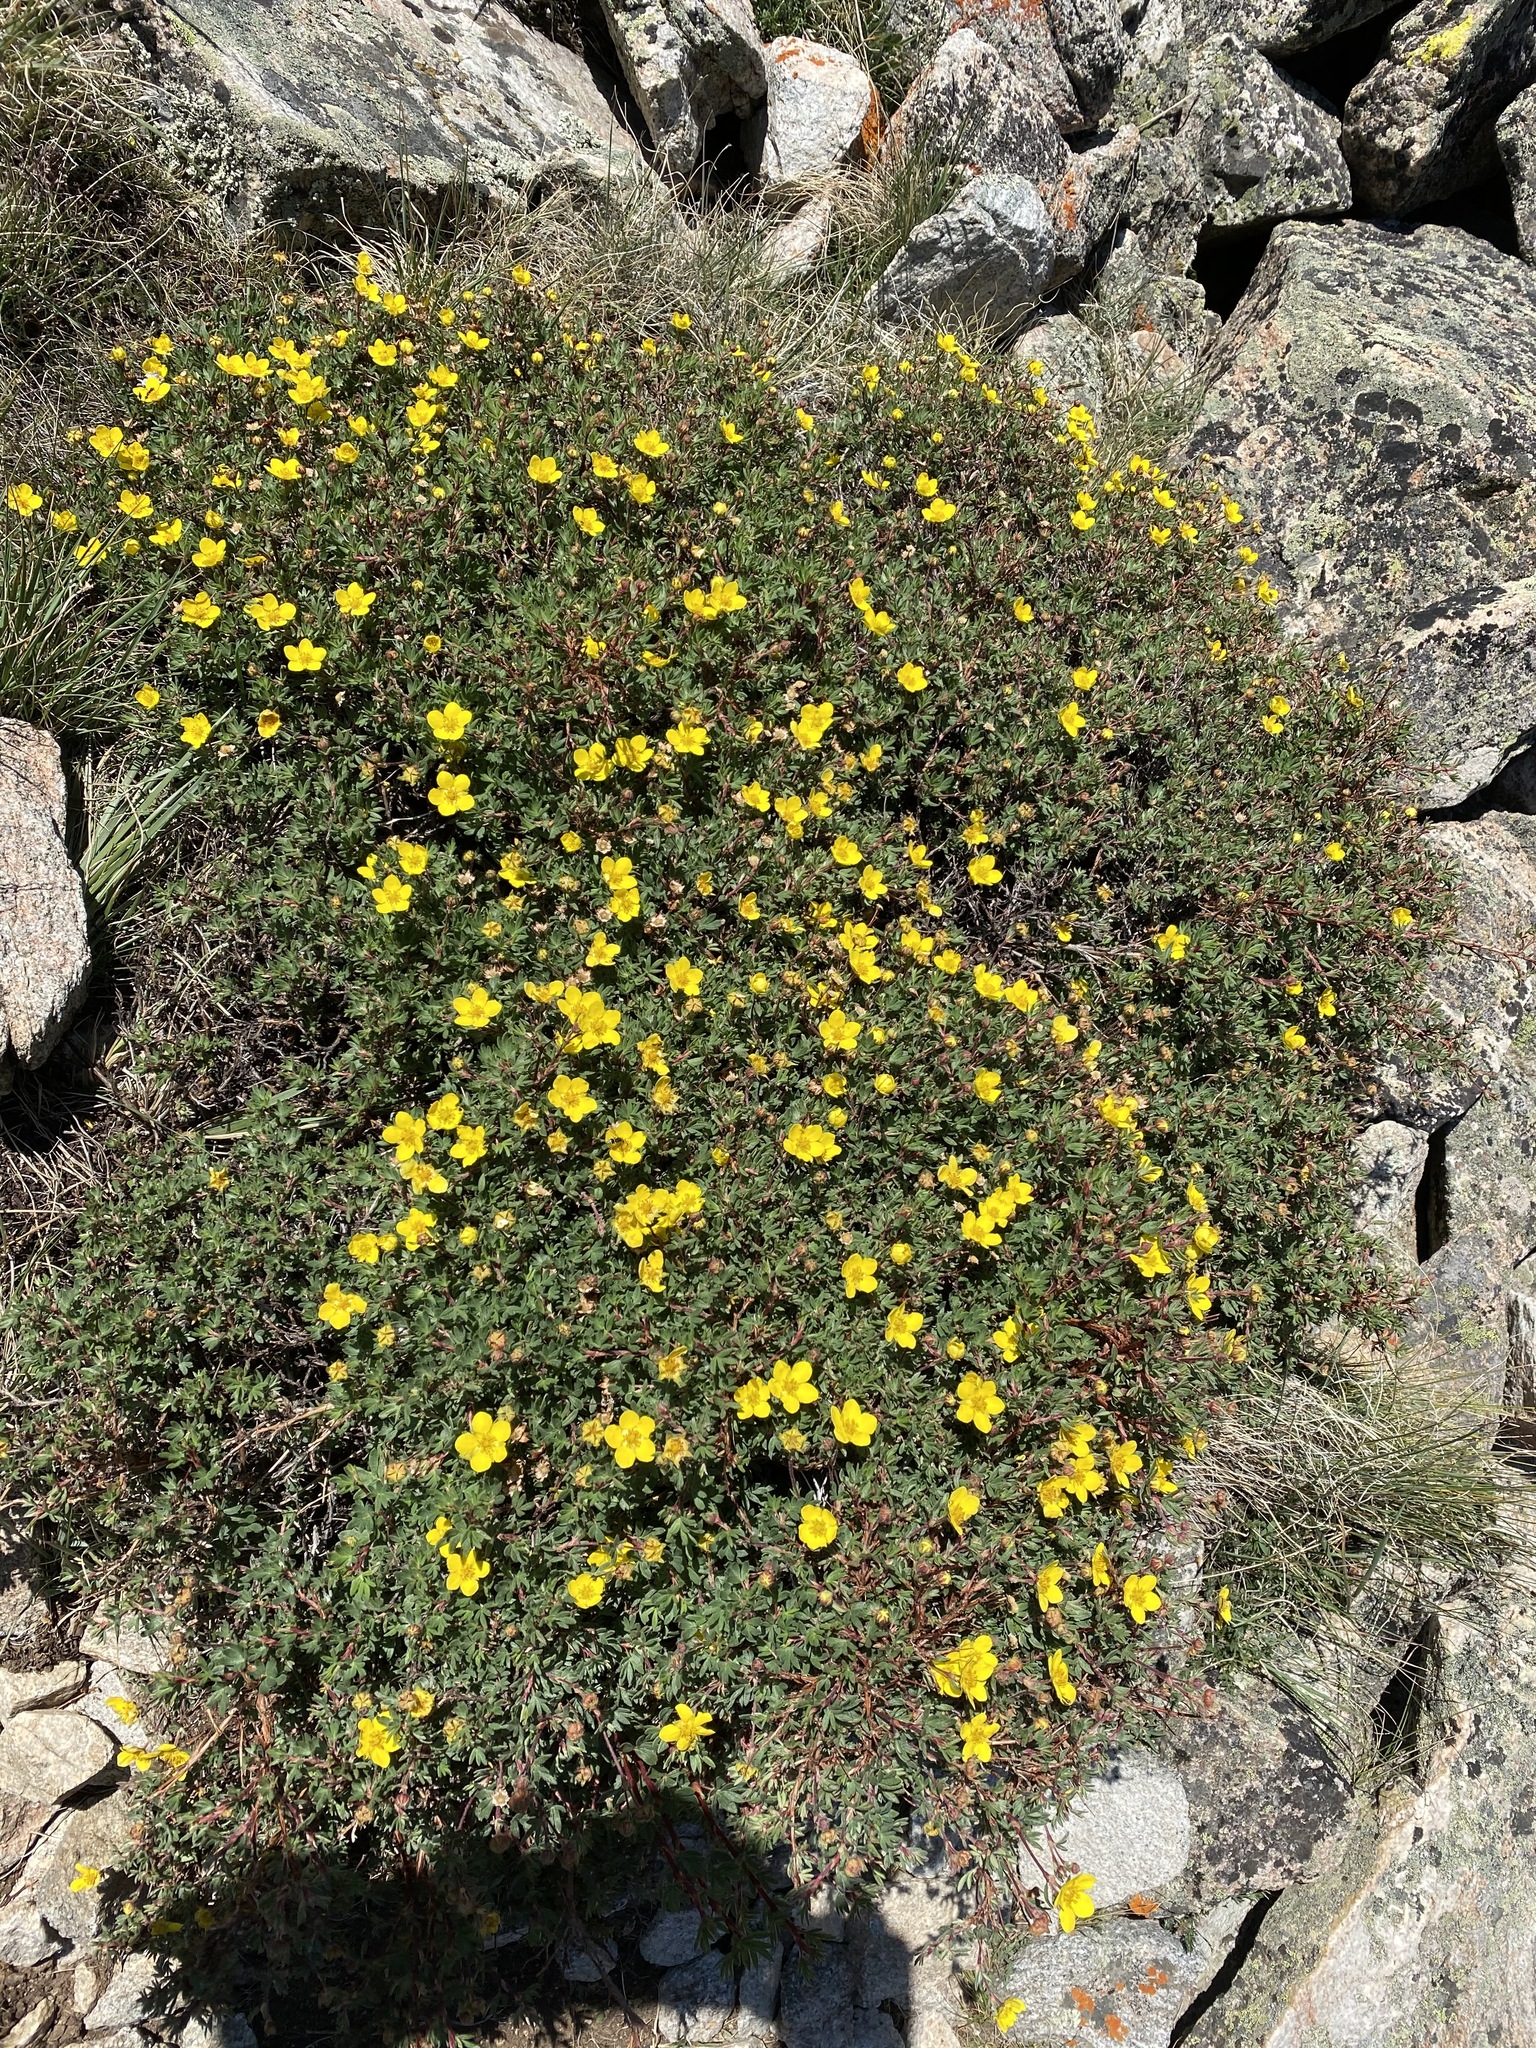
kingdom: Plantae
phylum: Tracheophyta
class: Magnoliopsida
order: Rosales
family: Rosaceae
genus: Dasiphora
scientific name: Dasiphora fruticosa
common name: Shrubby cinquefoil
